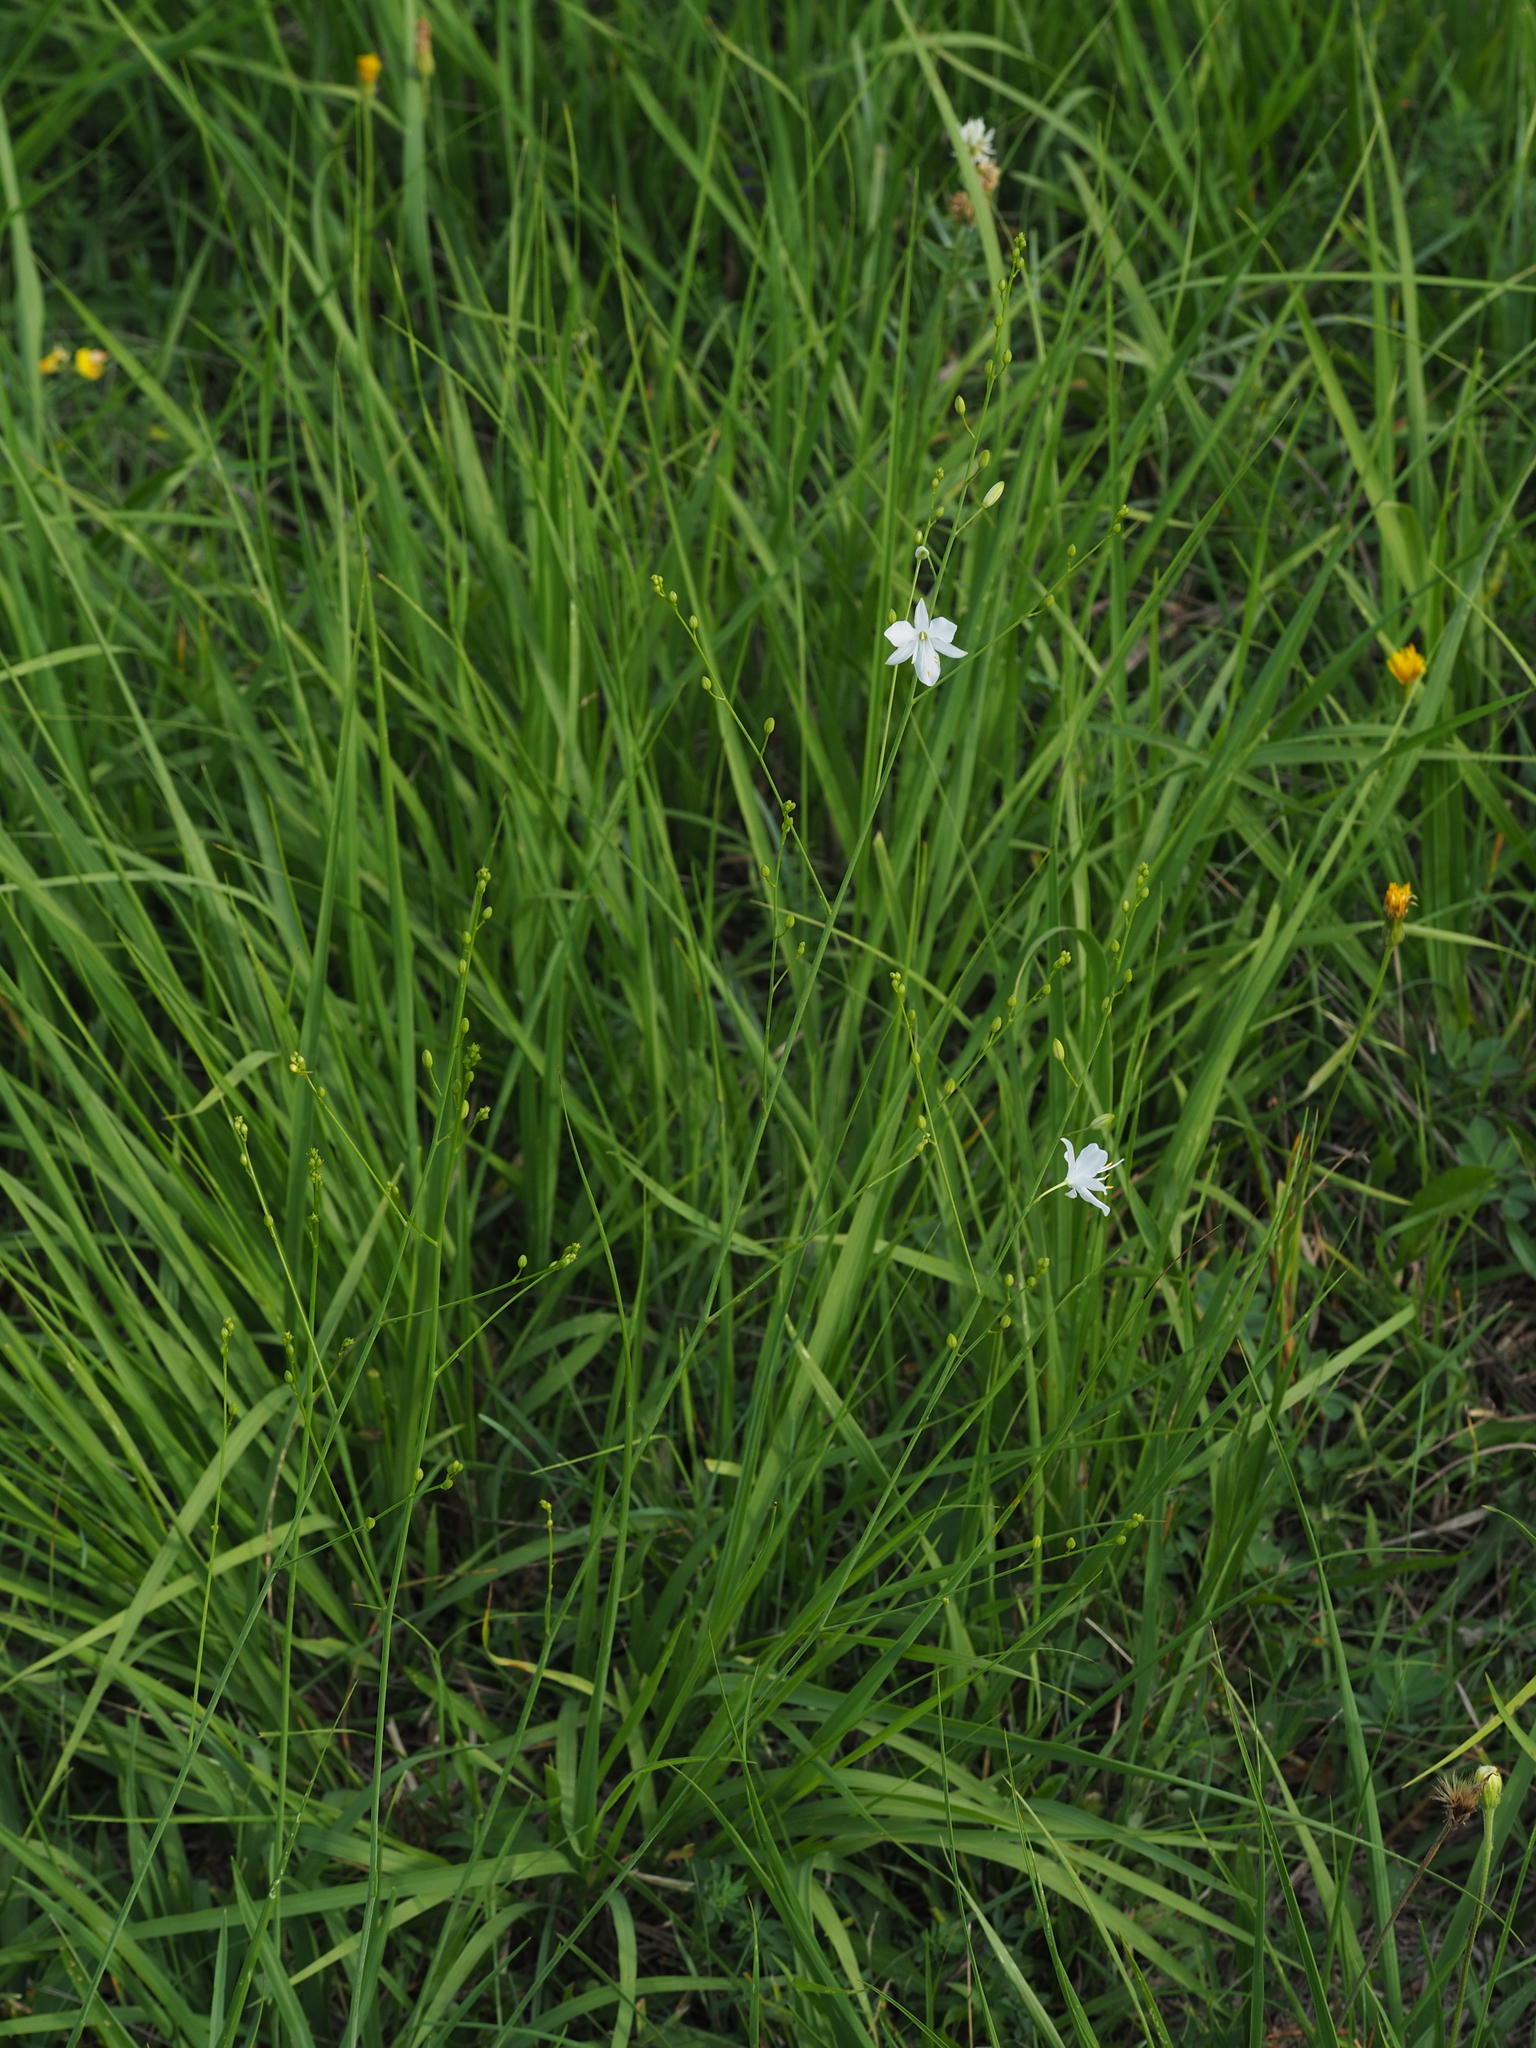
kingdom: Plantae
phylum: Tracheophyta
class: Liliopsida
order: Asparagales
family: Asparagaceae
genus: Anthericum
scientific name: Anthericum ramosum
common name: Branched st. bernard's-lily
